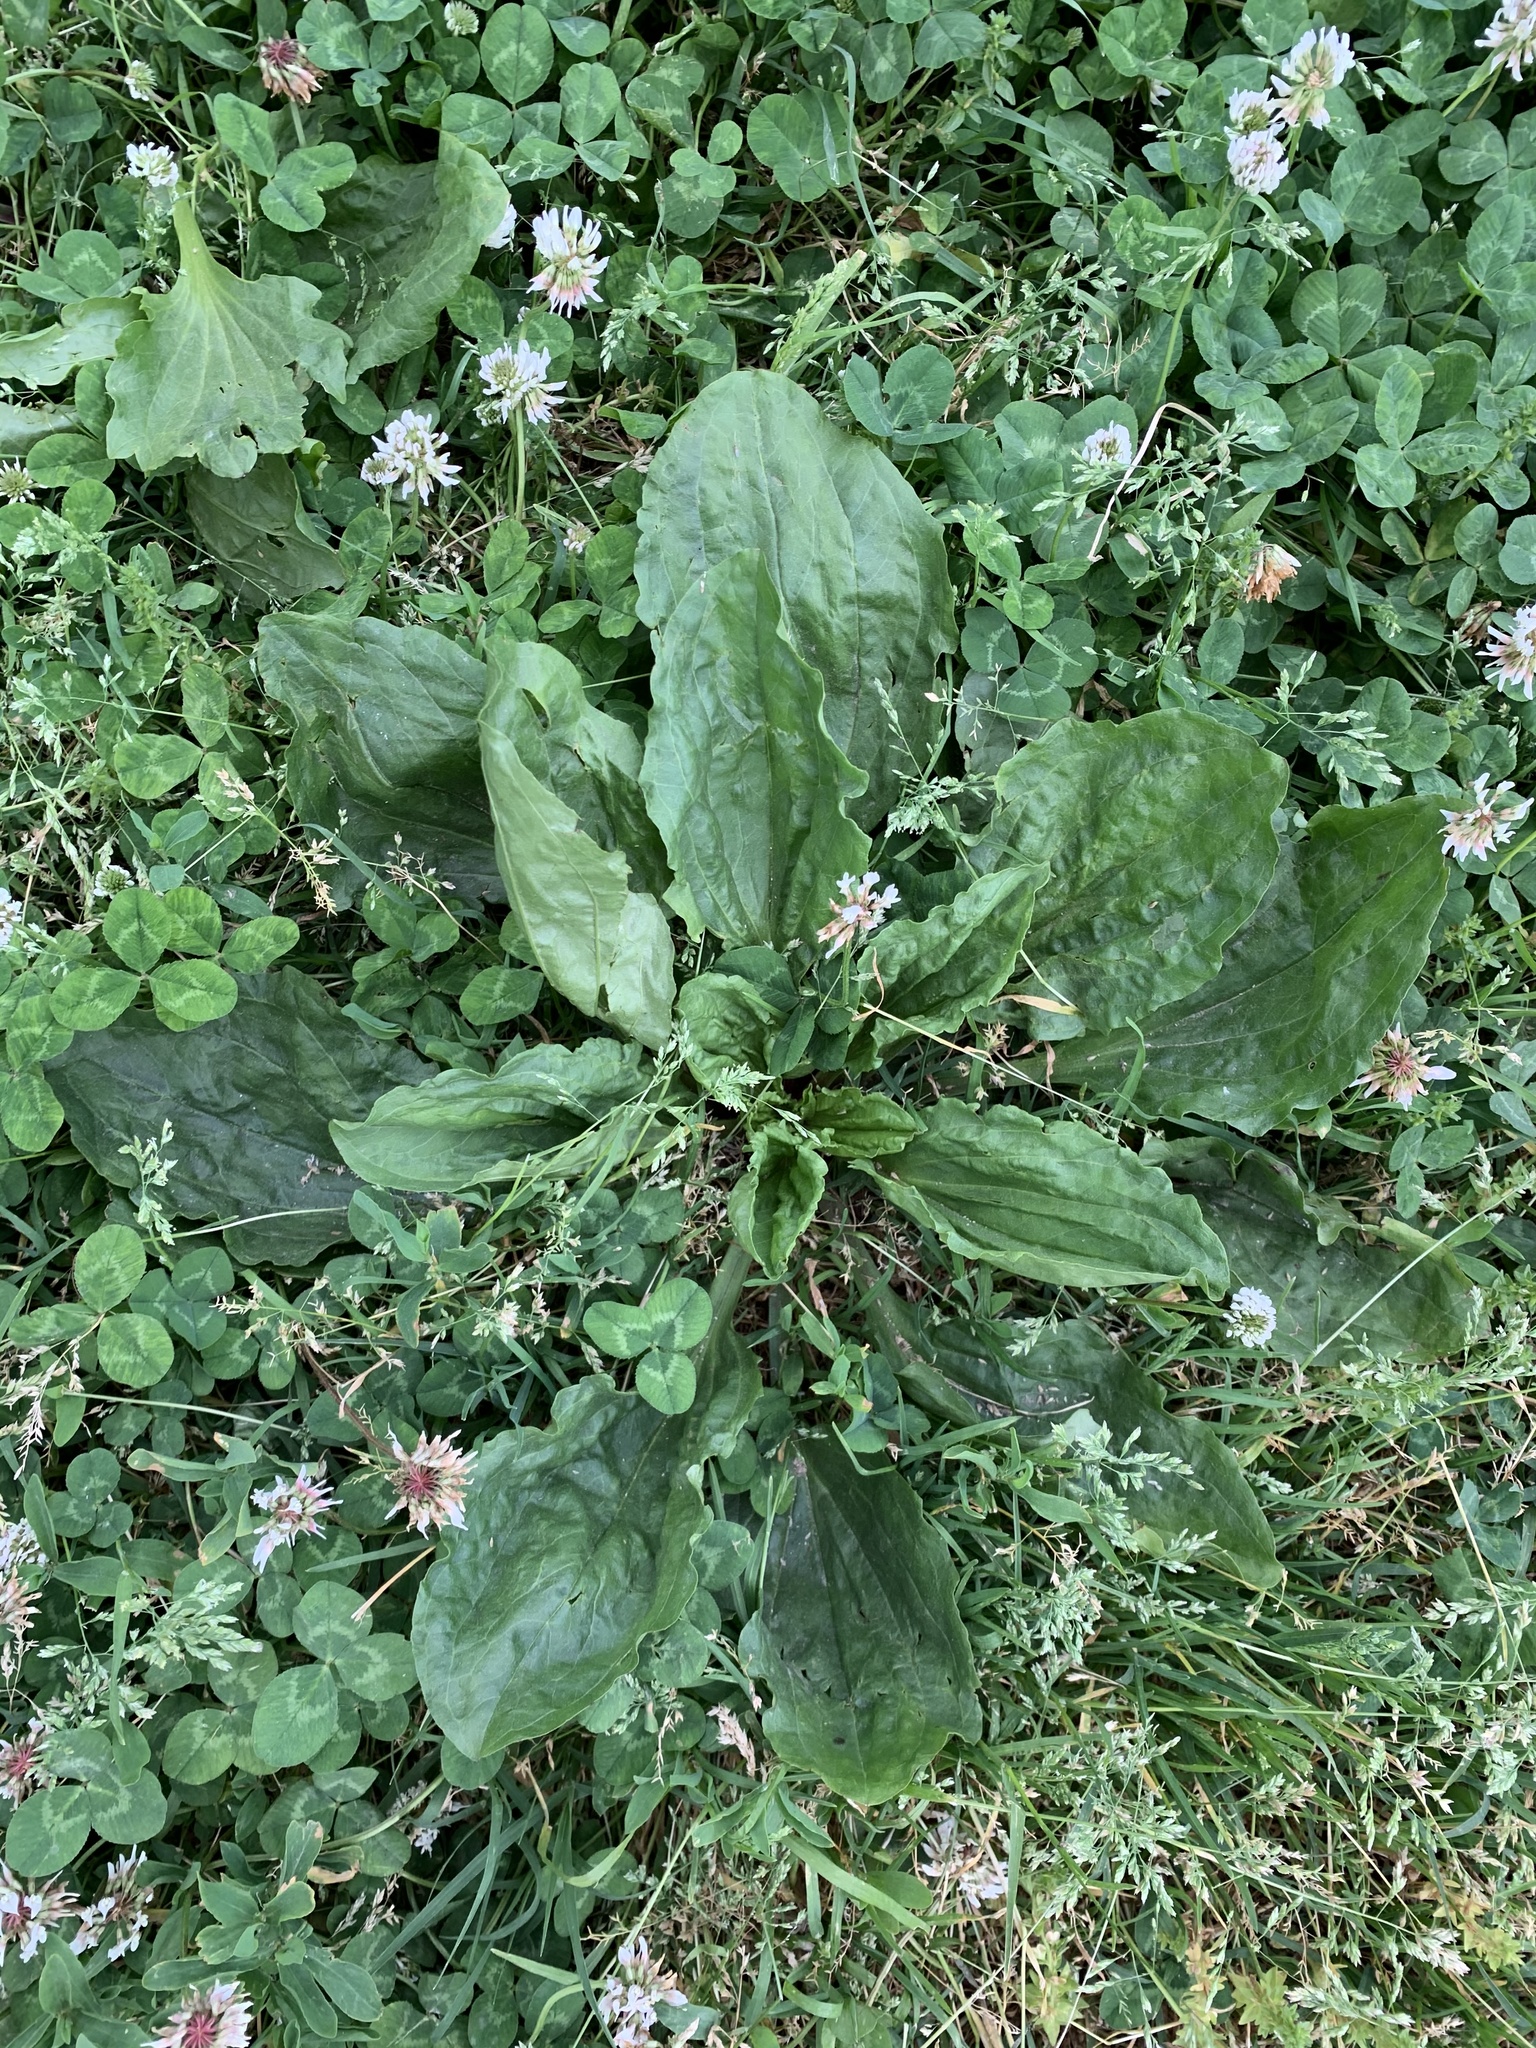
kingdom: Plantae
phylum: Tracheophyta
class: Magnoliopsida
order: Lamiales
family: Plantaginaceae
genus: Plantago
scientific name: Plantago major
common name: Common plantain
